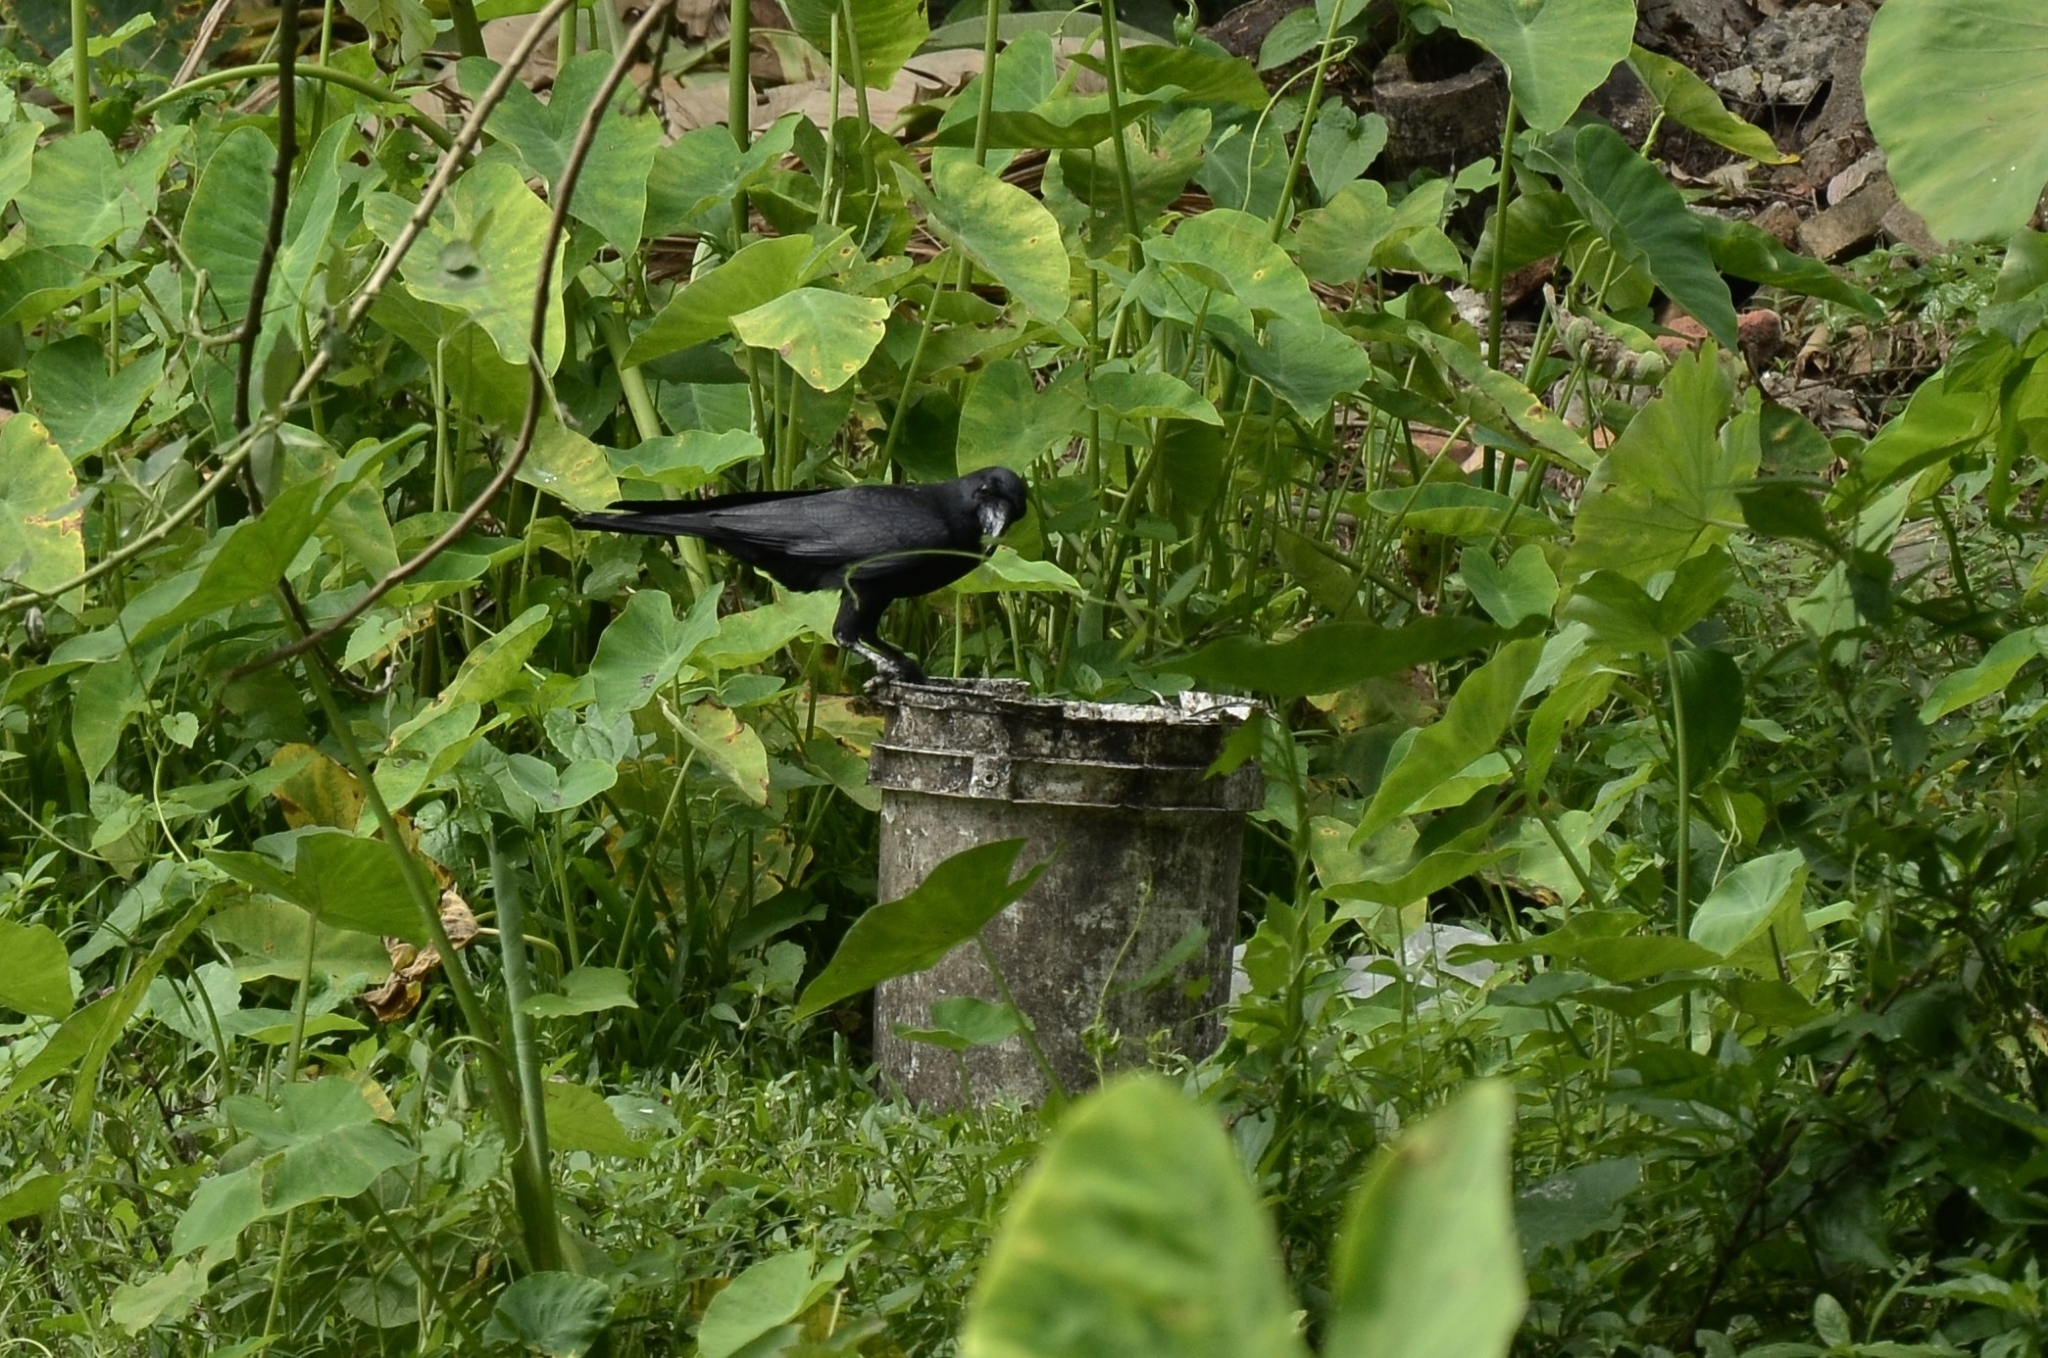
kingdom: Animalia
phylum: Chordata
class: Aves
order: Passeriformes
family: Corvidae
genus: Corvus
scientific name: Corvus macrorhynchos
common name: Large-billed crow
